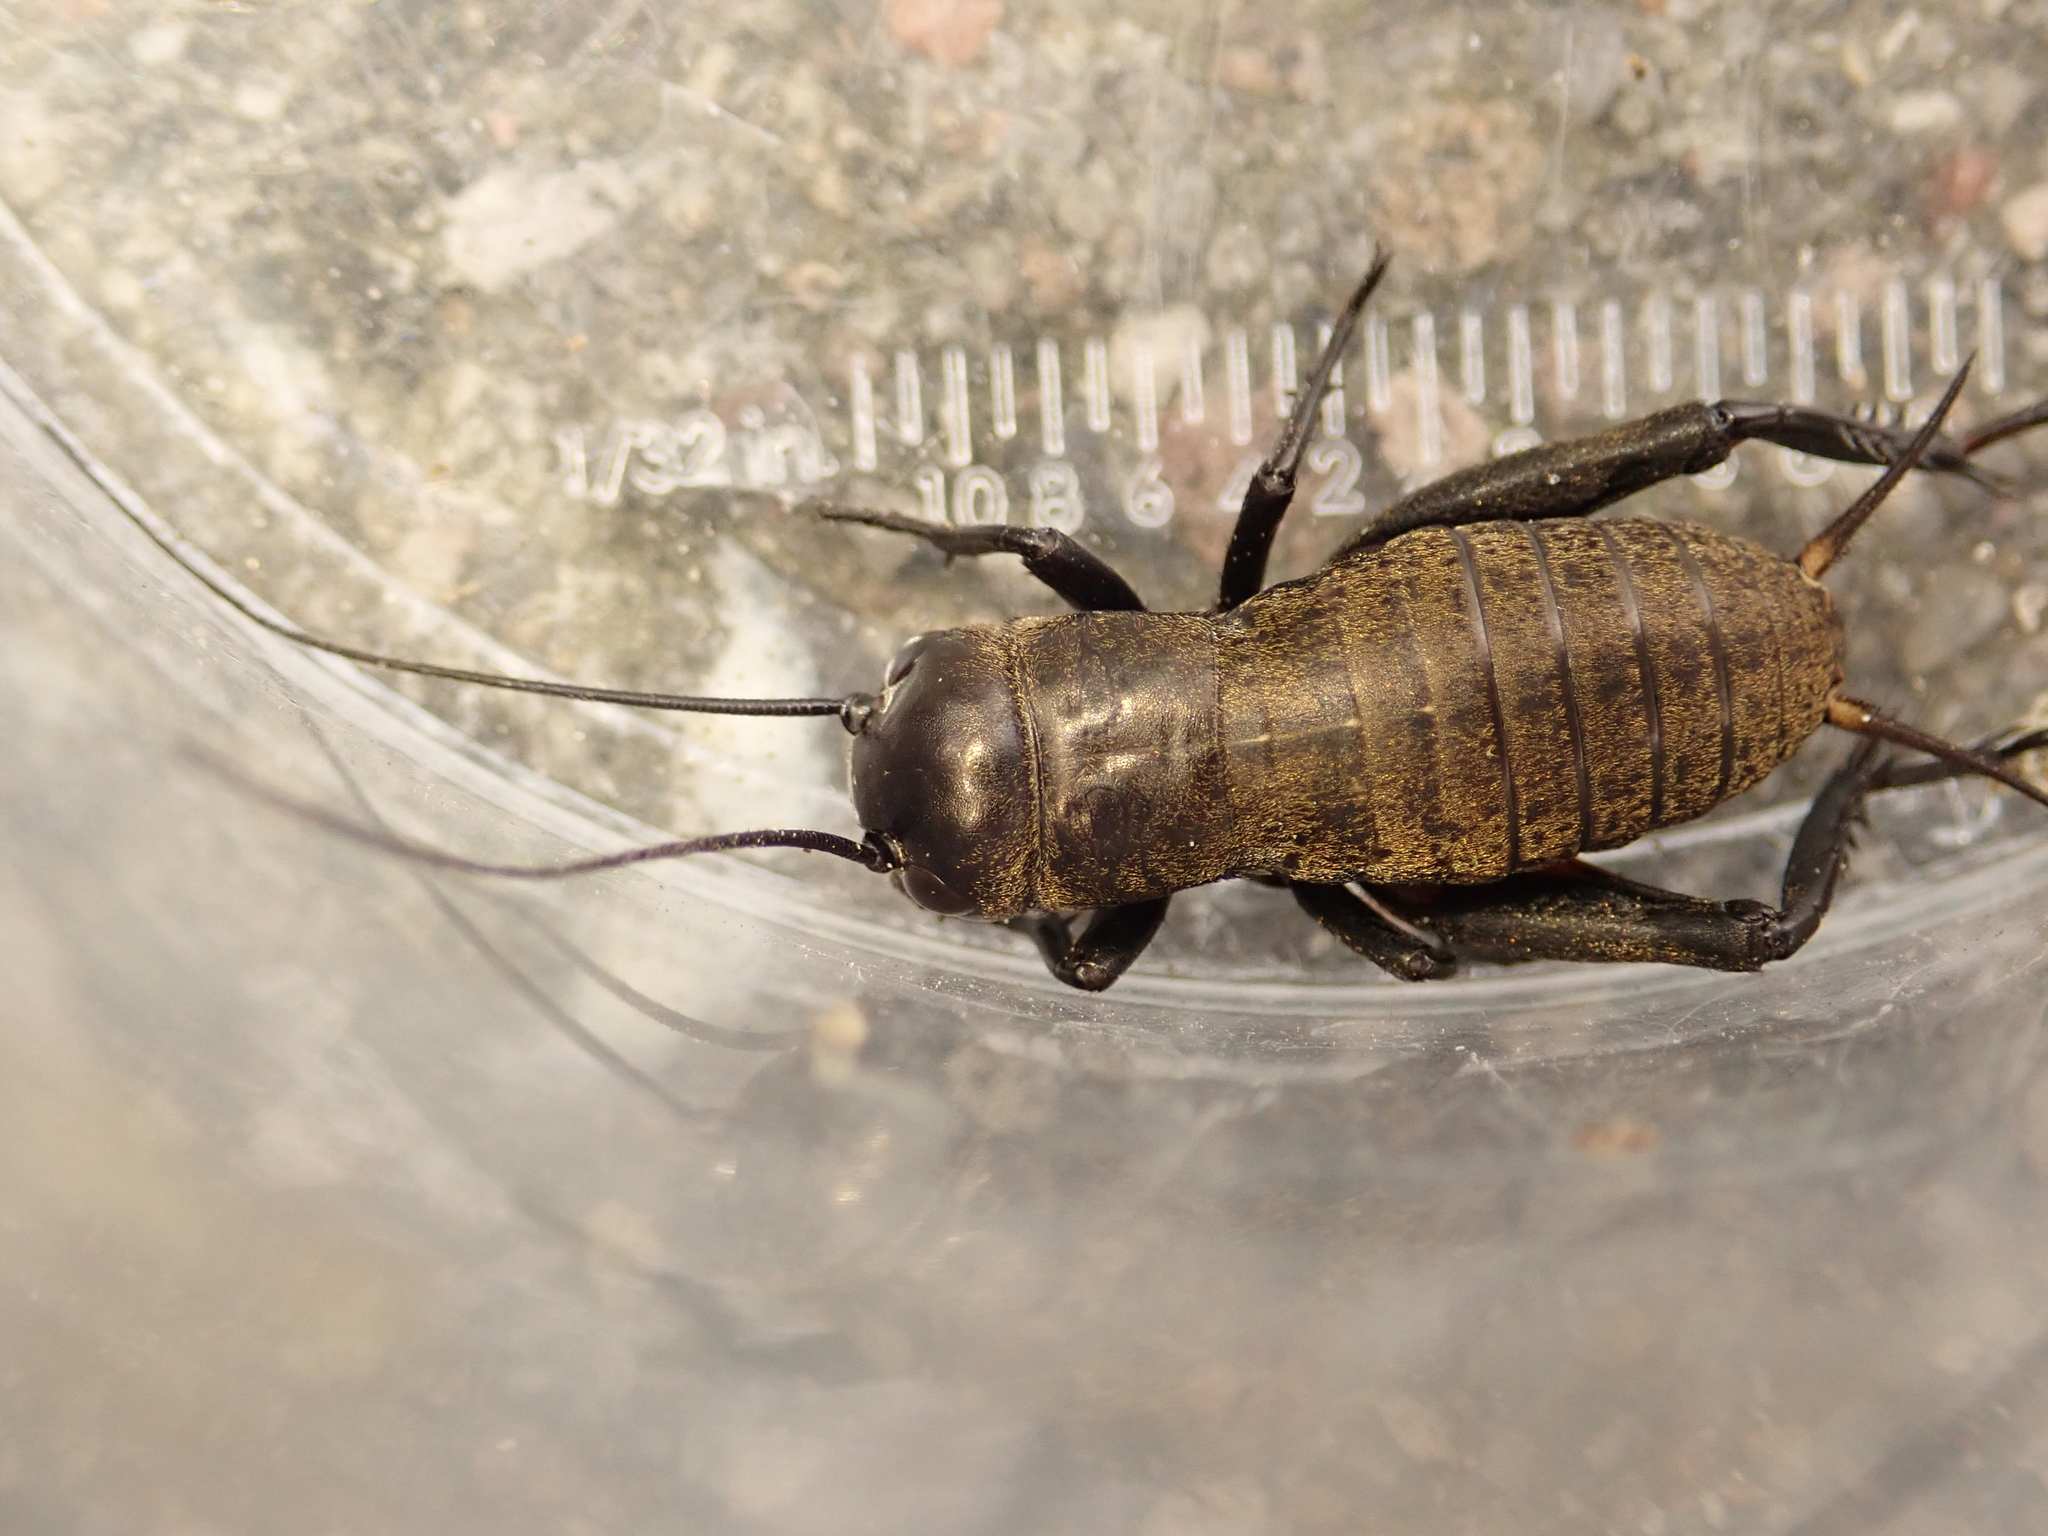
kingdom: Animalia
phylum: Arthropoda
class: Insecta
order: Orthoptera
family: Gryllidae
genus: Gryllus
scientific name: Gryllus campestris
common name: Field cricket
